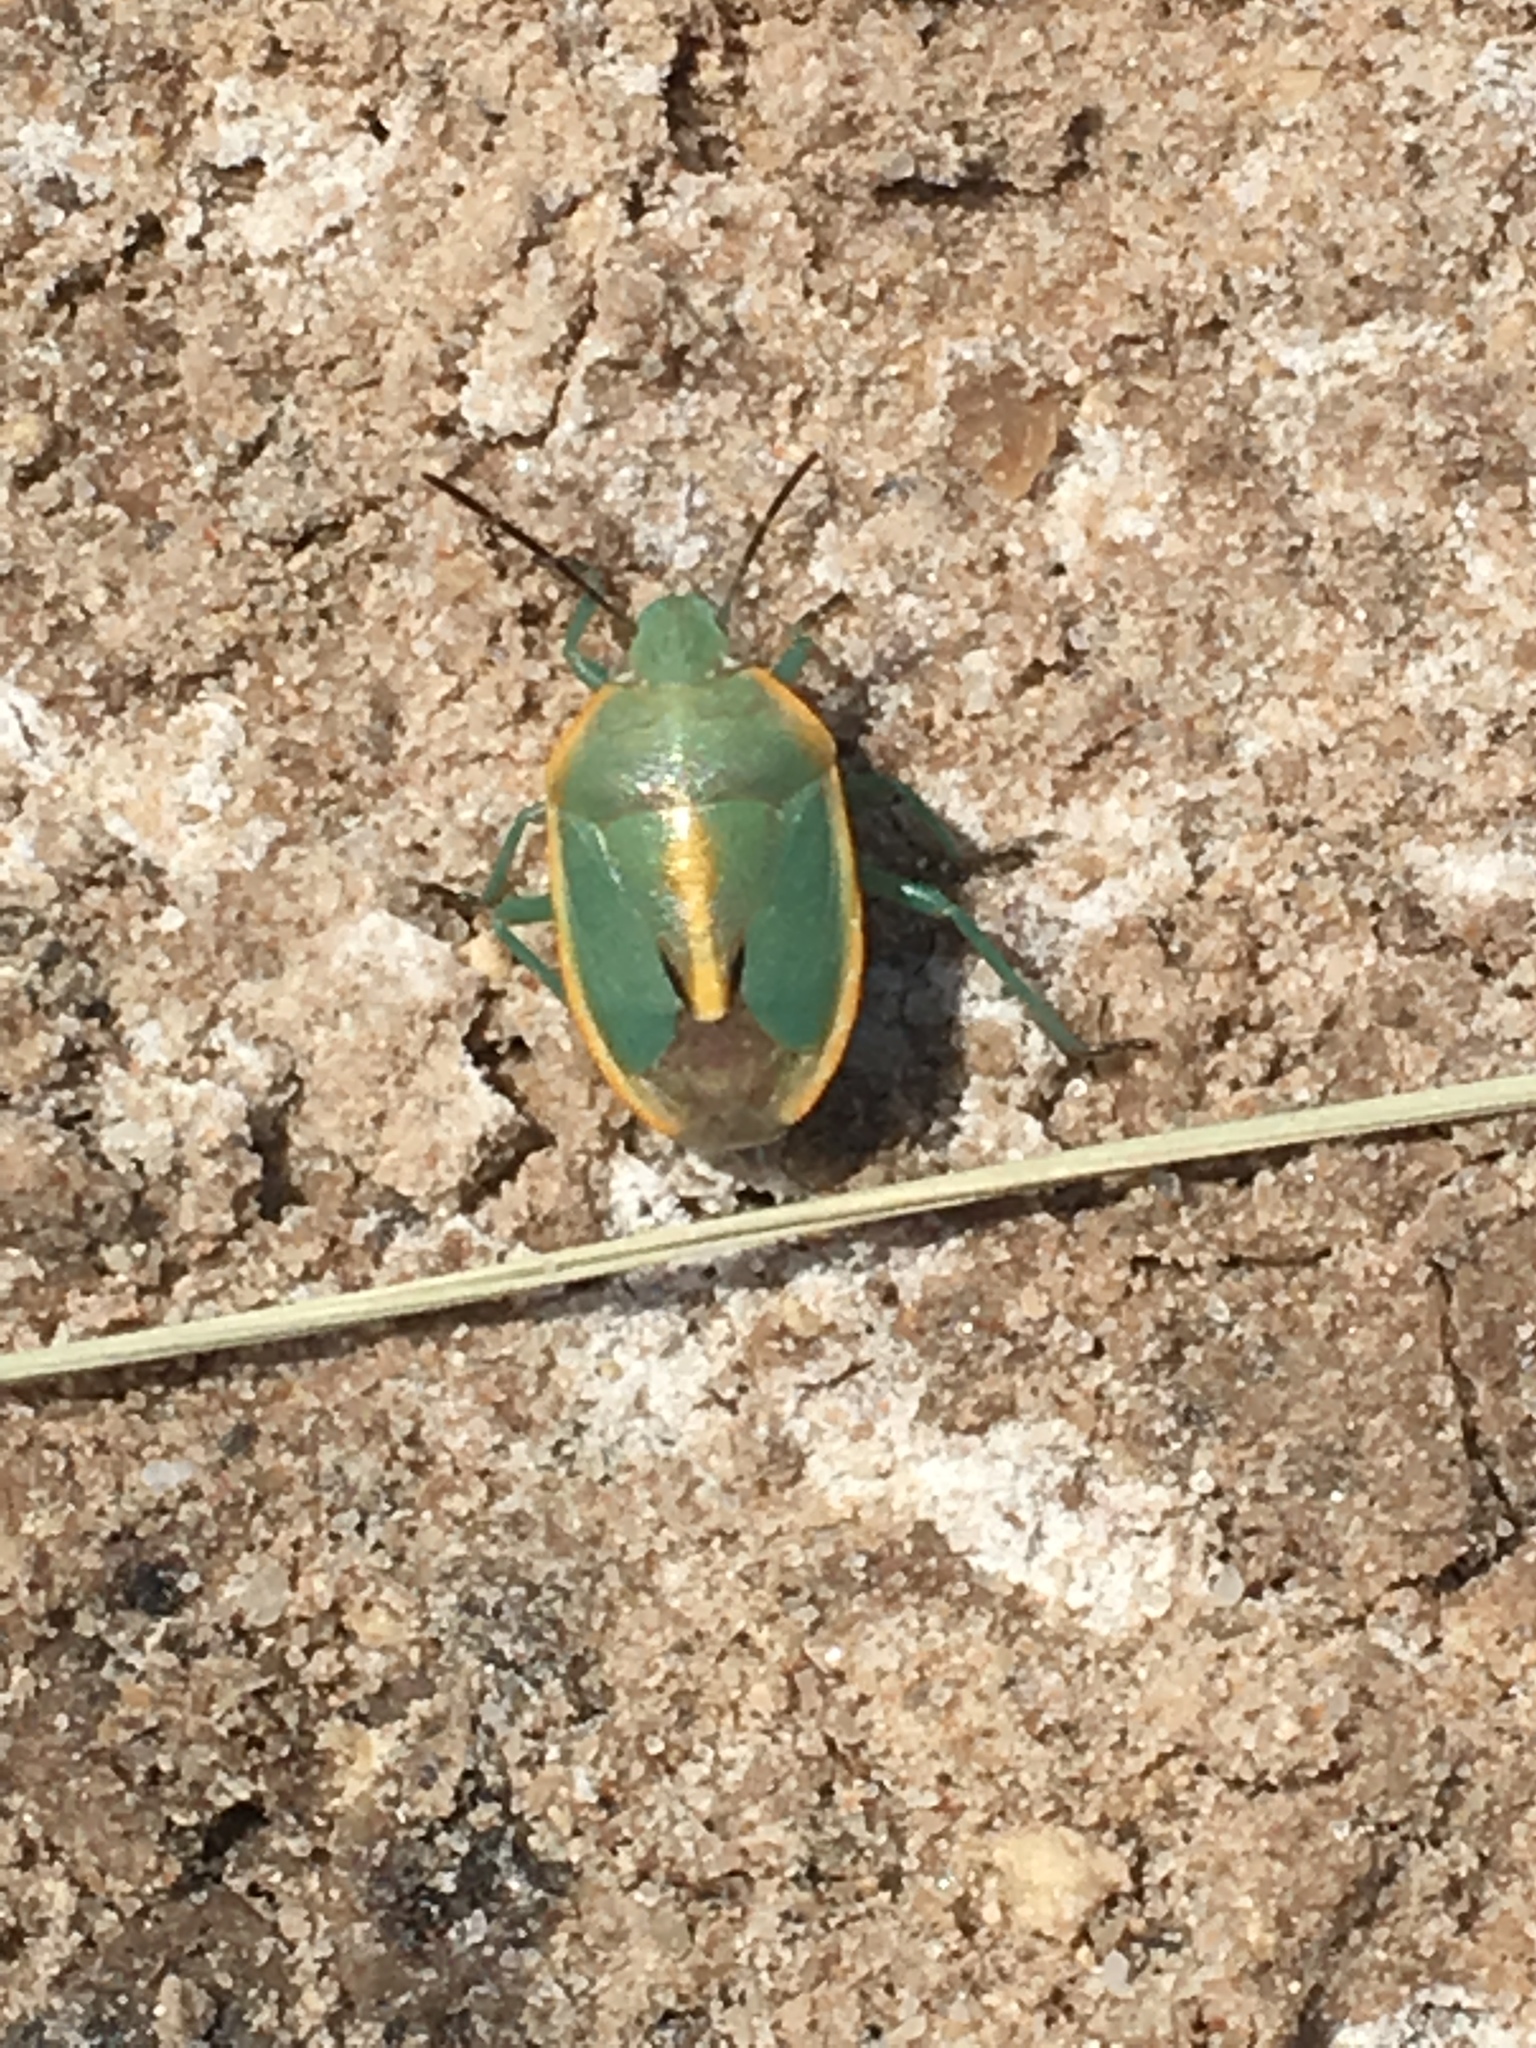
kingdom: Animalia
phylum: Arthropoda
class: Insecta
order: Hemiptera
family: Pentatomidae
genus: Chlorochroa
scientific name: Chlorochroa faceta
